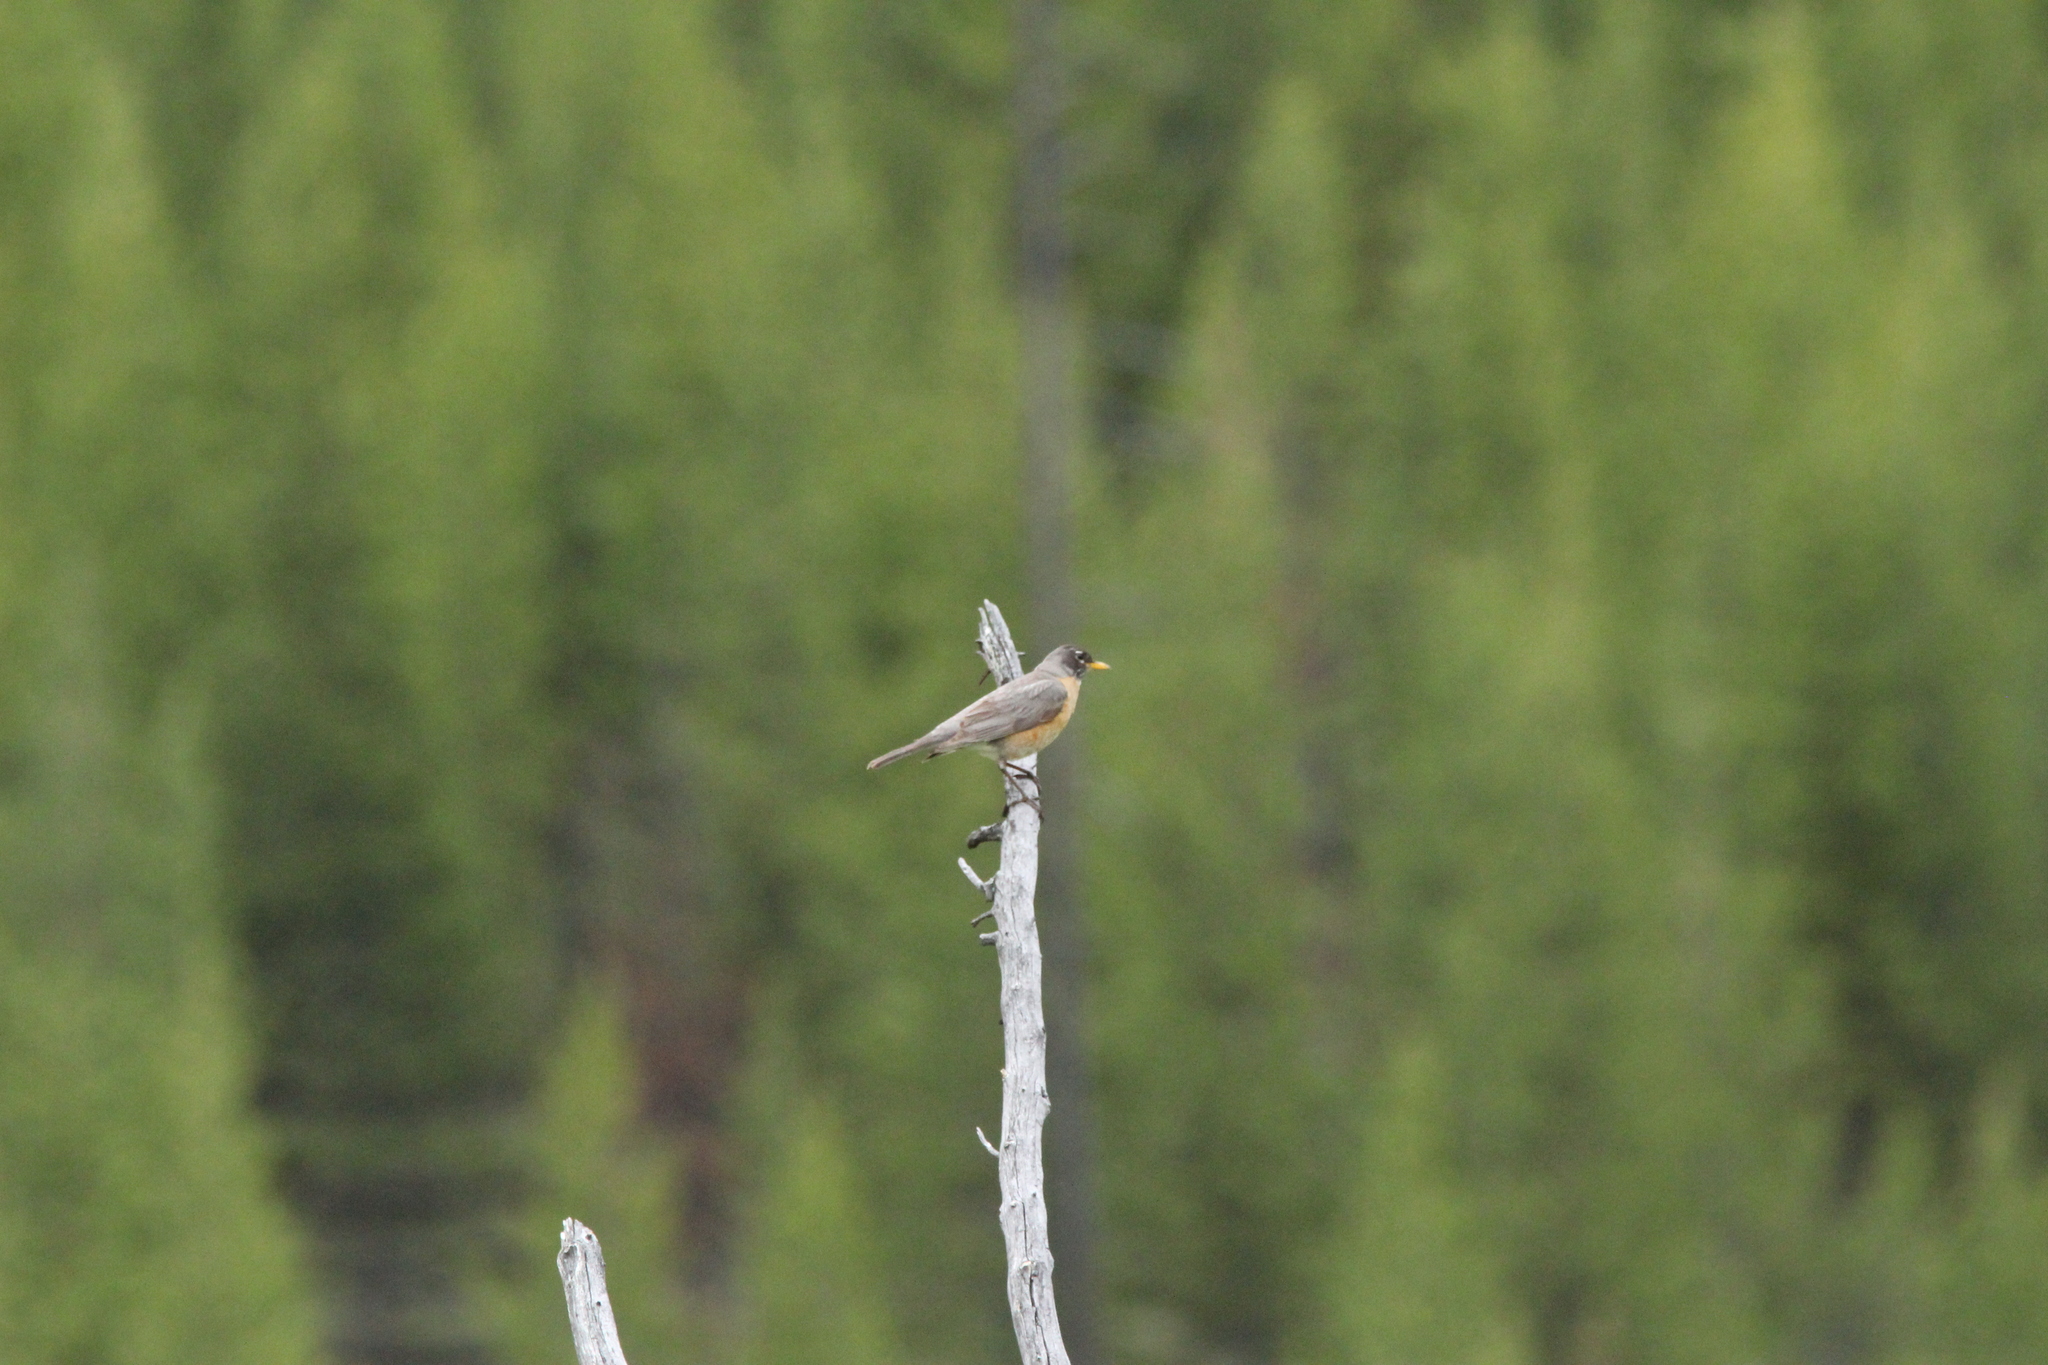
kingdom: Animalia
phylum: Chordata
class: Aves
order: Passeriformes
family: Turdidae
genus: Turdus
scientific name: Turdus migratorius
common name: American robin
